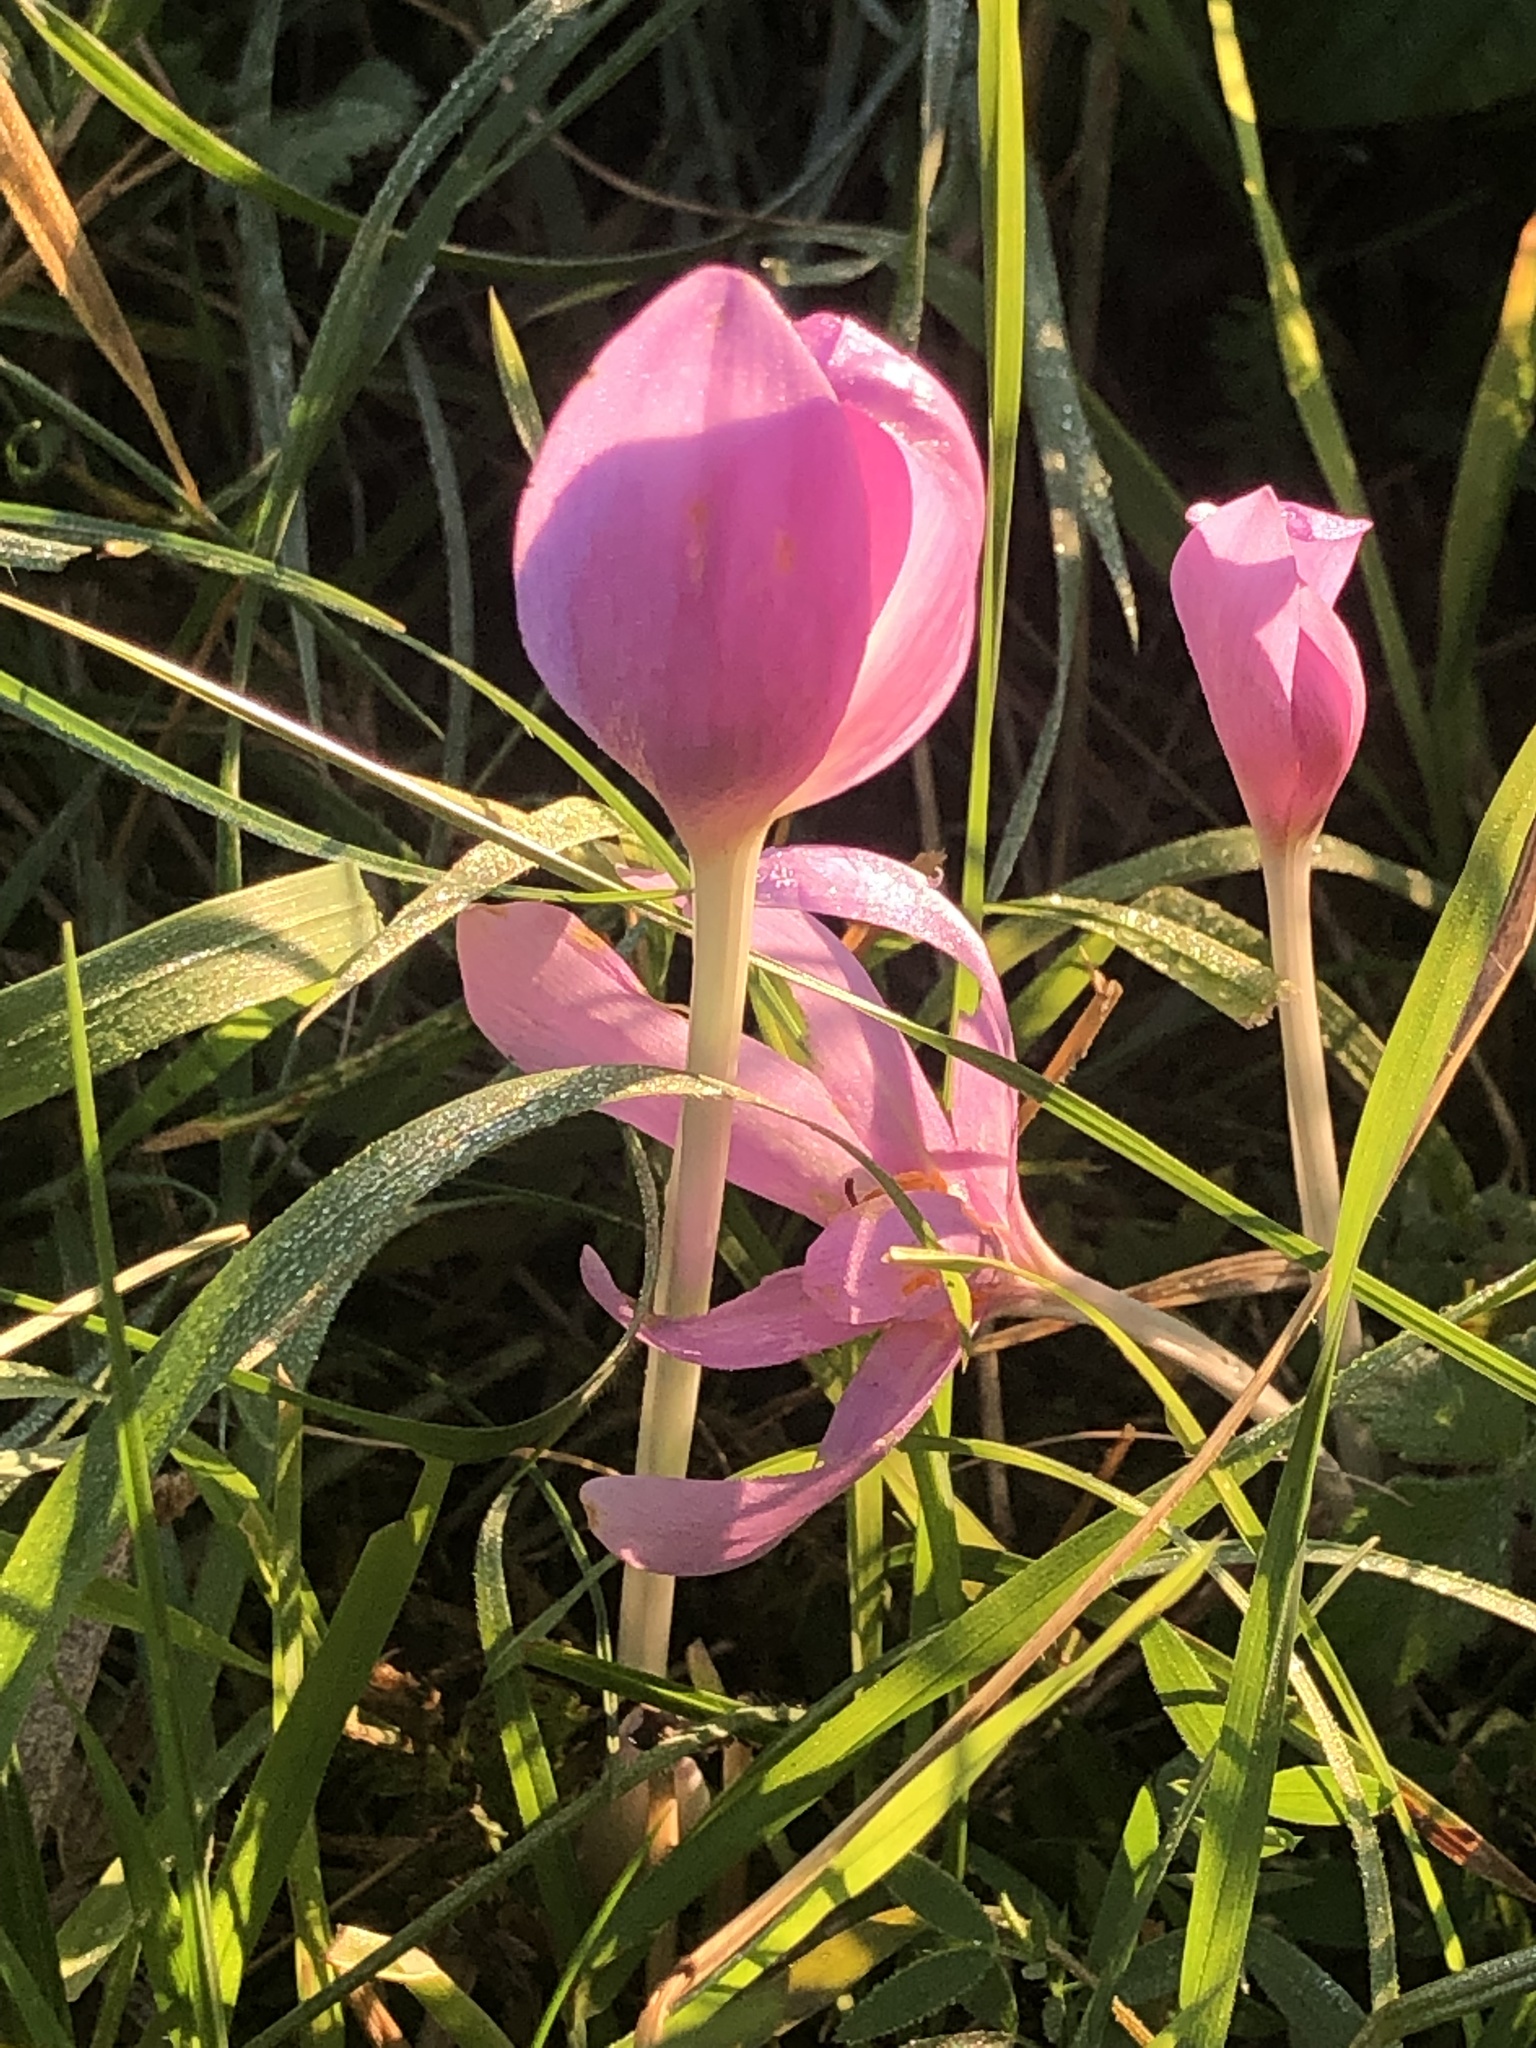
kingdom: Plantae
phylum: Tracheophyta
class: Liliopsida
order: Liliales
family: Colchicaceae
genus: Colchicum
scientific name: Colchicum autumnale
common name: Autumn crocus
